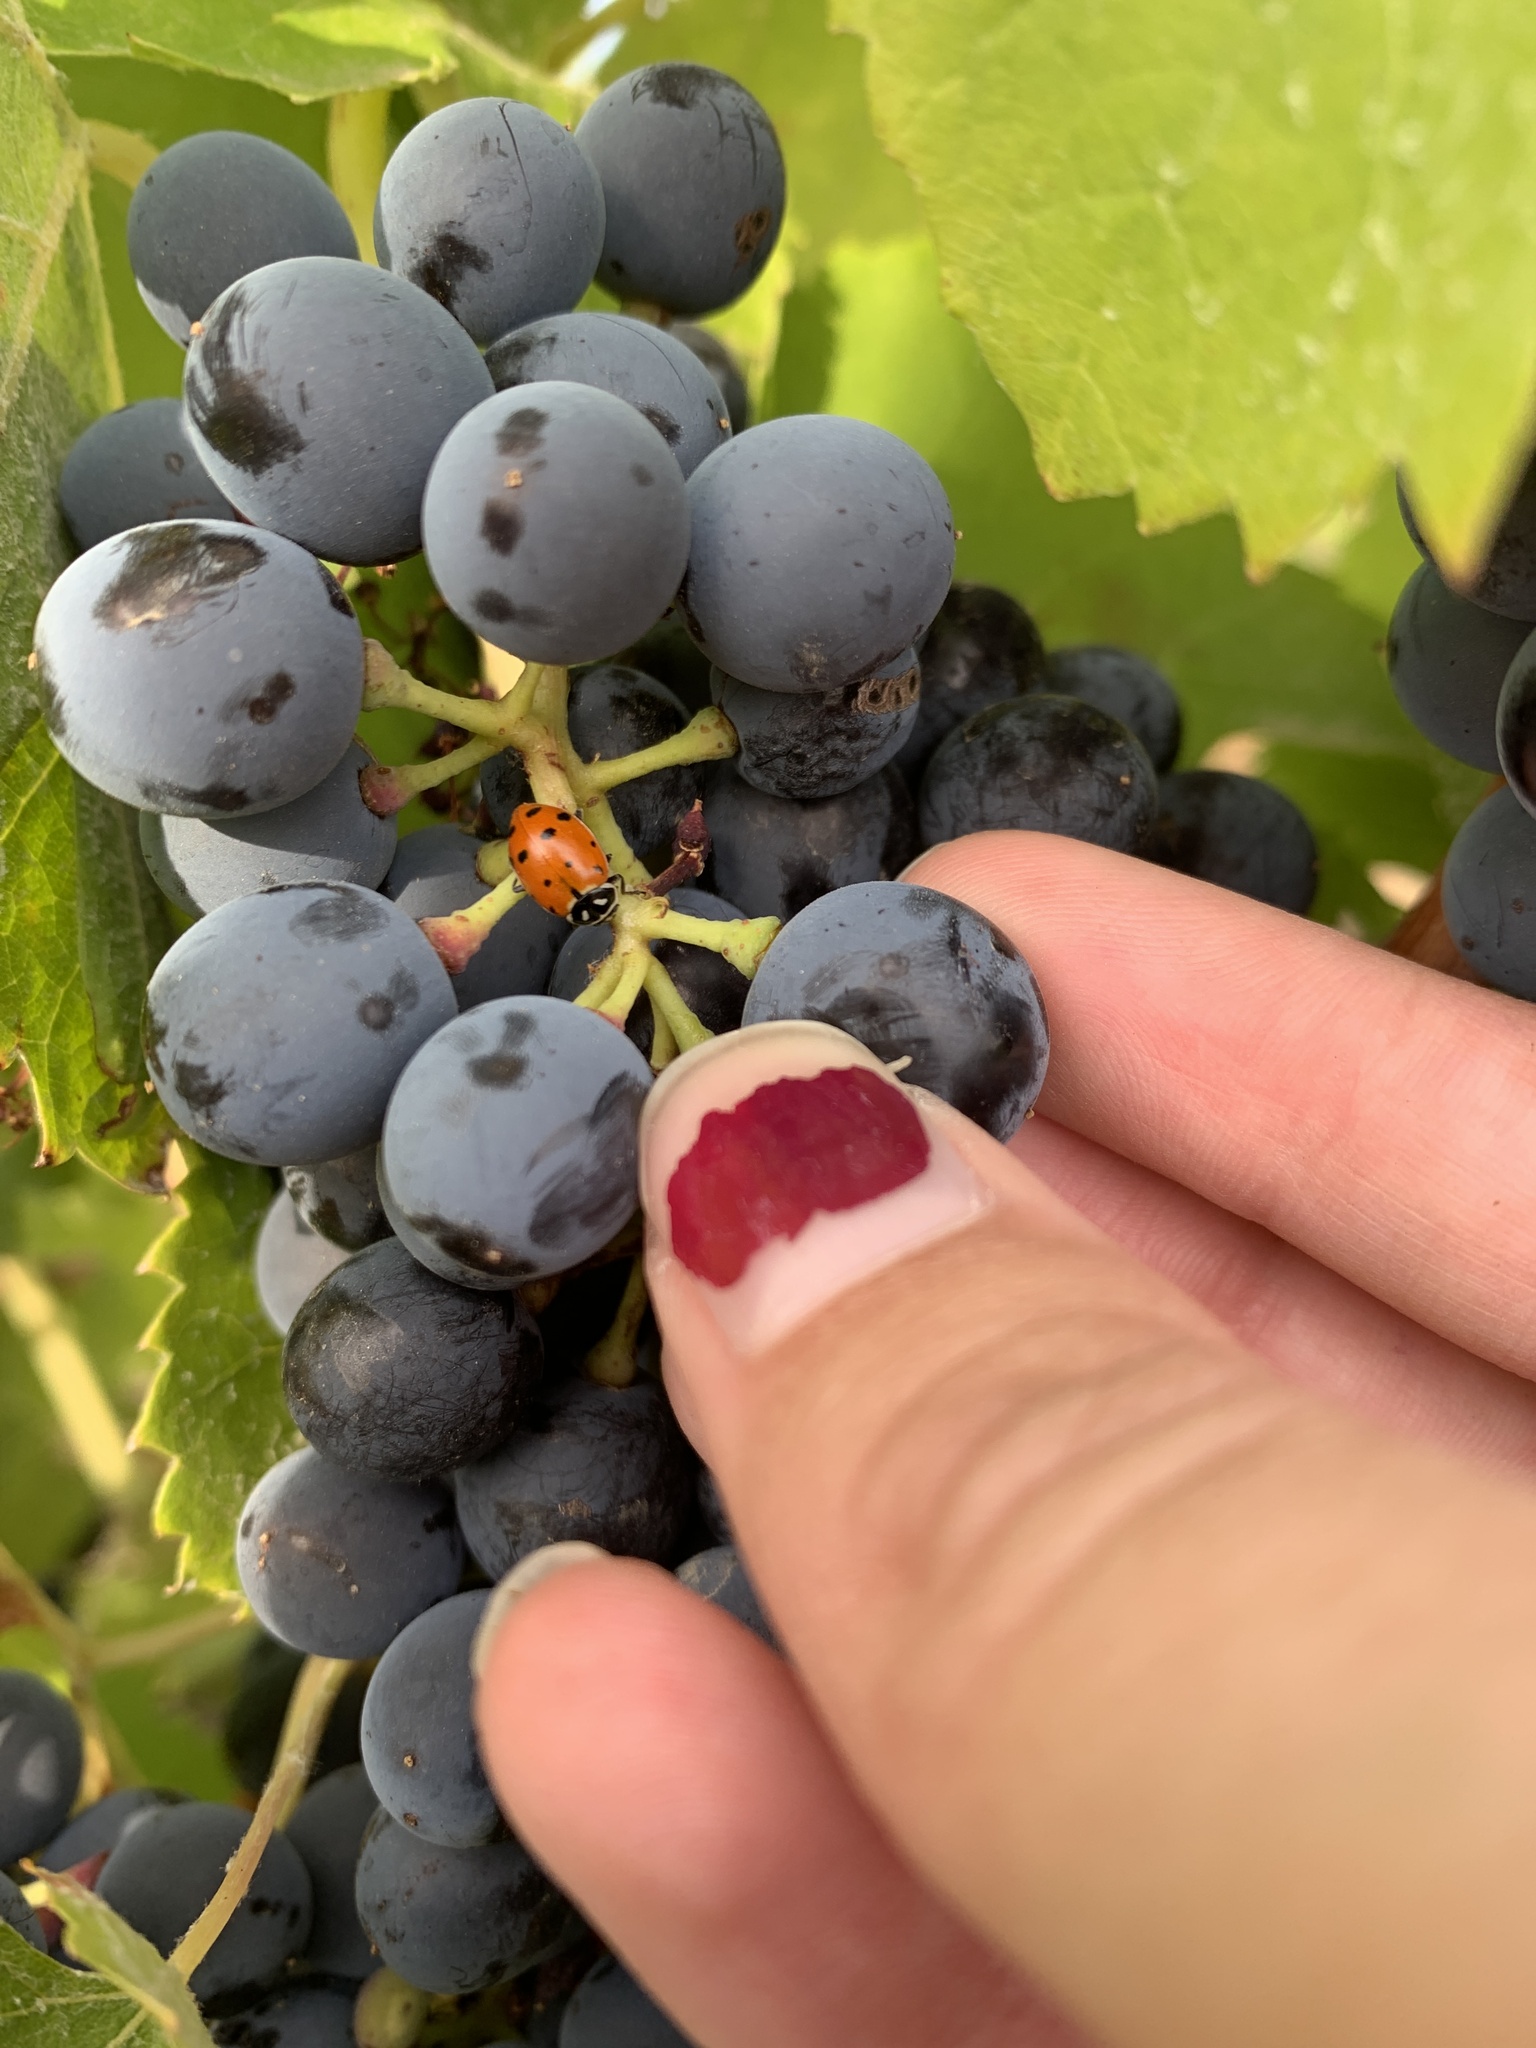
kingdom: Animalia
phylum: Arthropoda
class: Insecta
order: Coleoptera
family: Coccinellidae
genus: Hippodamia
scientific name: Hippodamia convergens
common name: Convergent lady beetle
